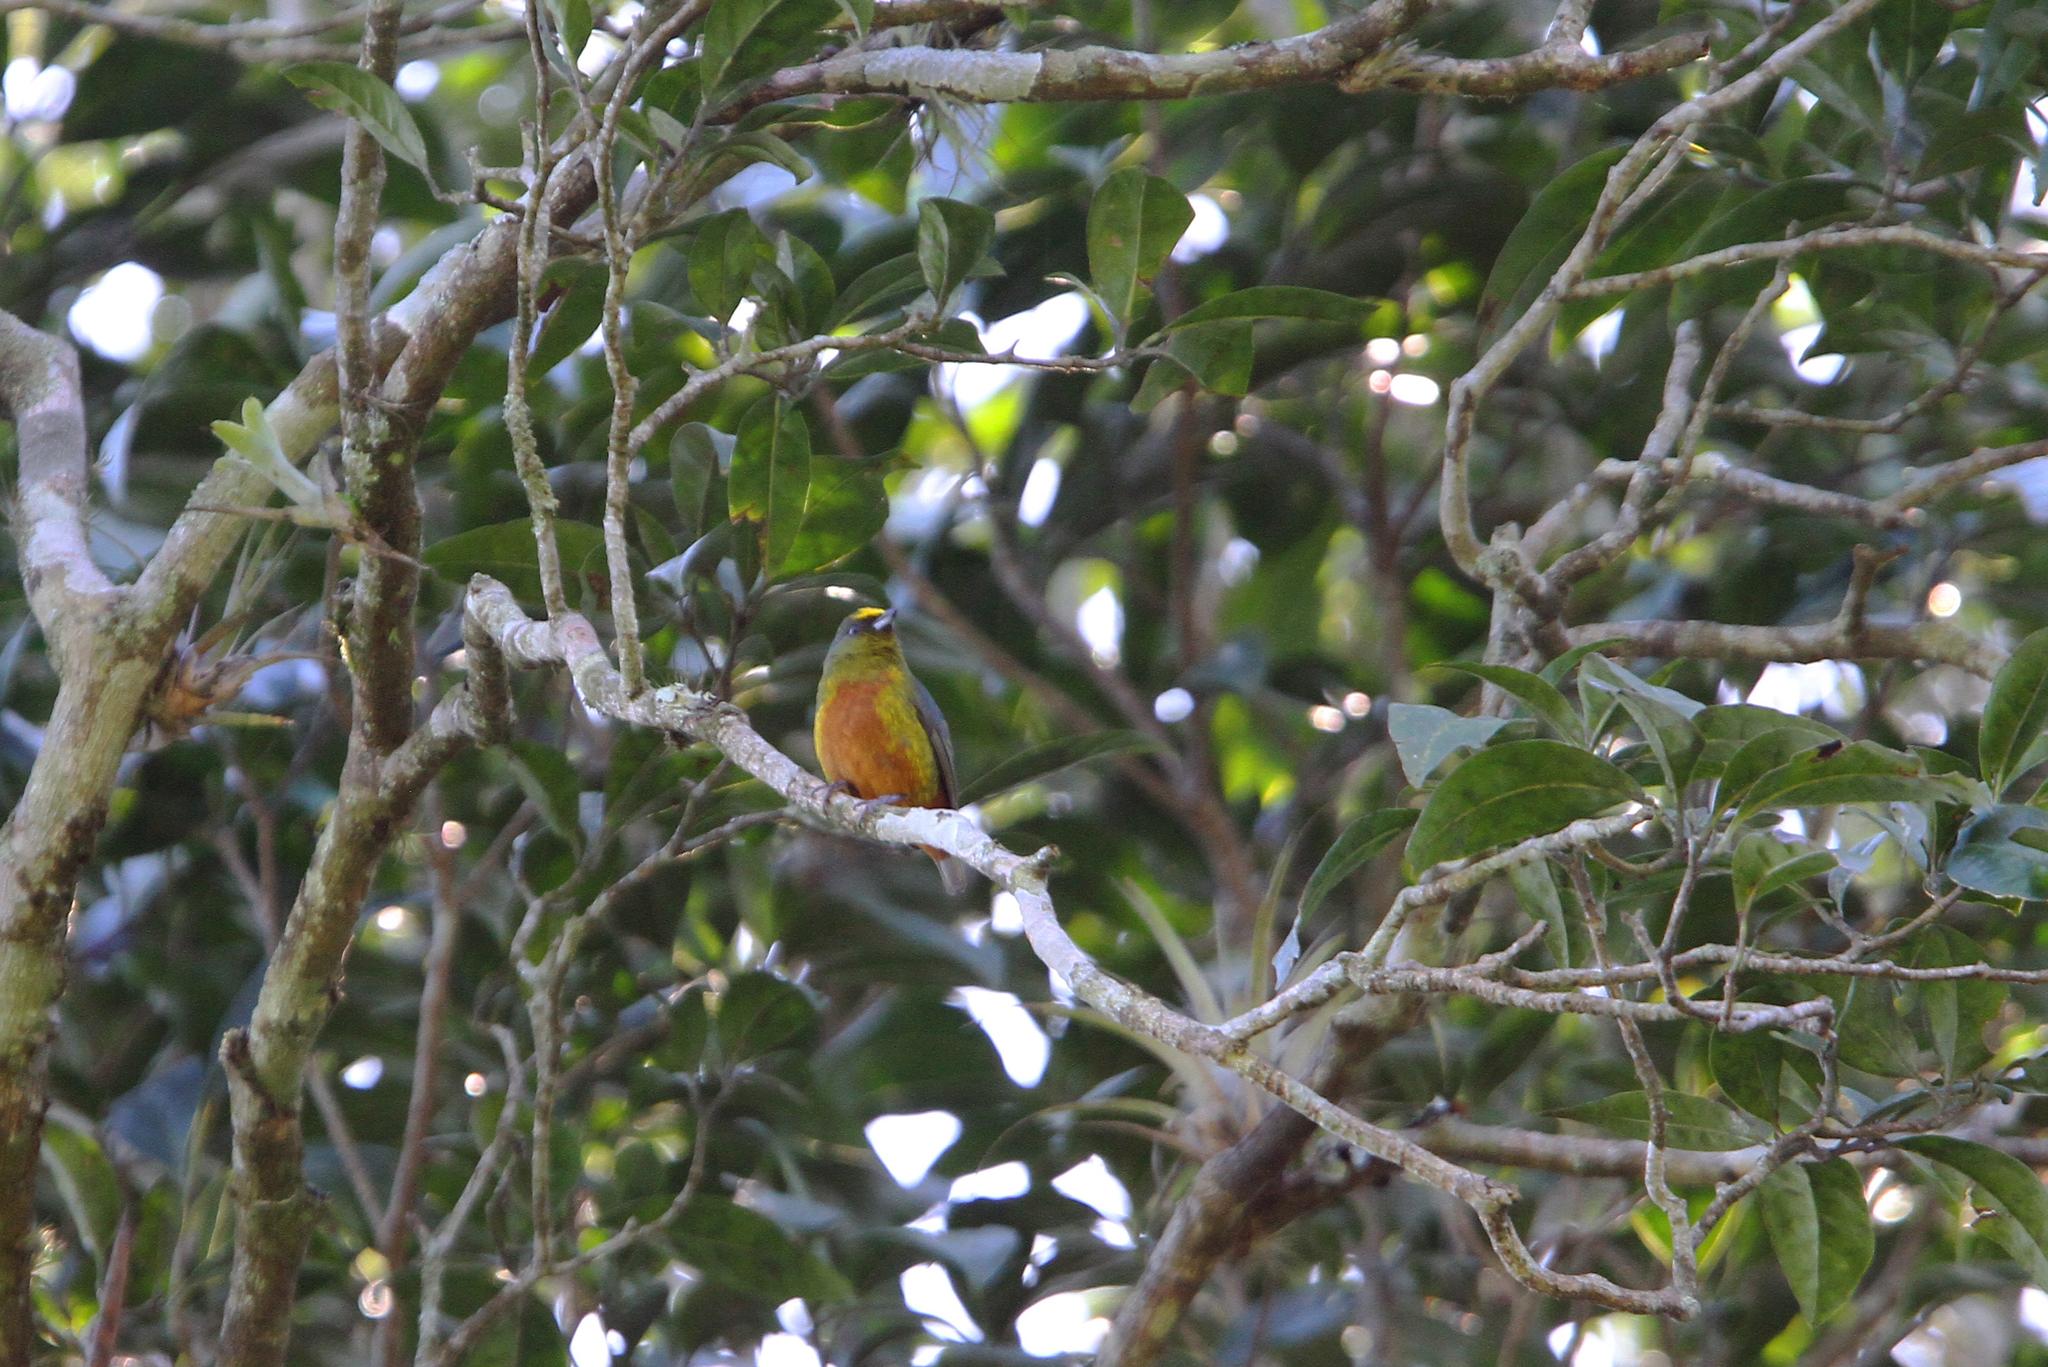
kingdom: Animalia
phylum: Chordata
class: Aves
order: Passeriformes
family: Fringillidae
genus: Euphonia
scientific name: Euphonia gouldi
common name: Olive-backed euphonia
